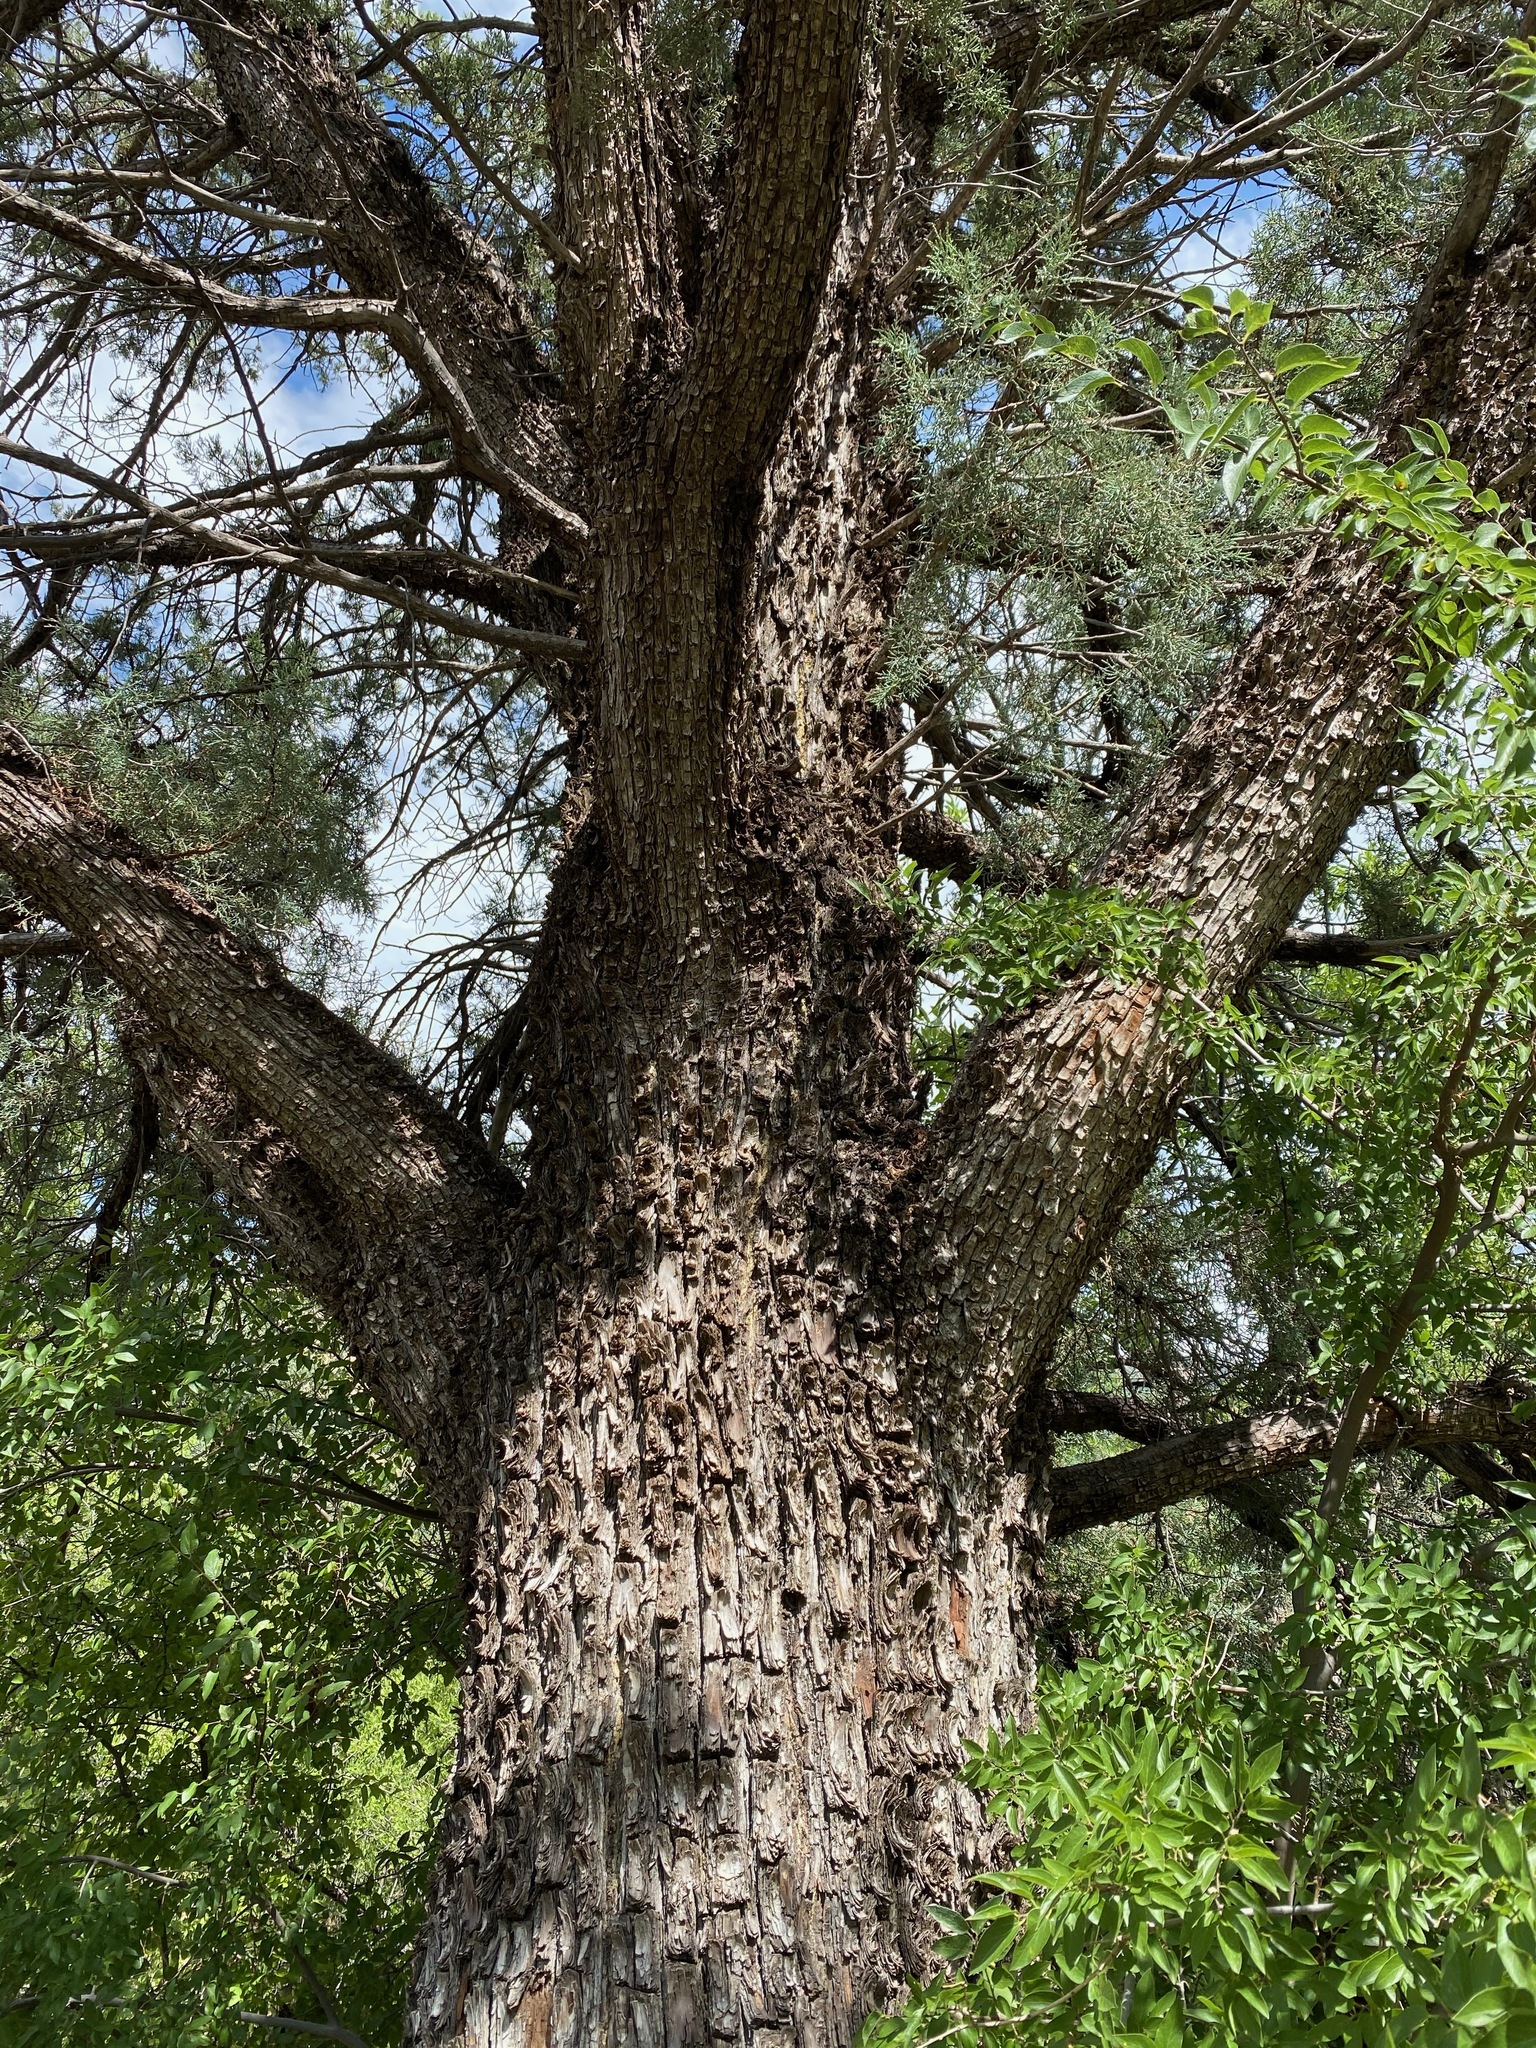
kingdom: Plantae
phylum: Tracheophyta
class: Pinopsida
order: Pinales
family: Cupressaceae
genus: Juniperus
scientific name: Juniperus deppeana
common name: Alligator juniper
